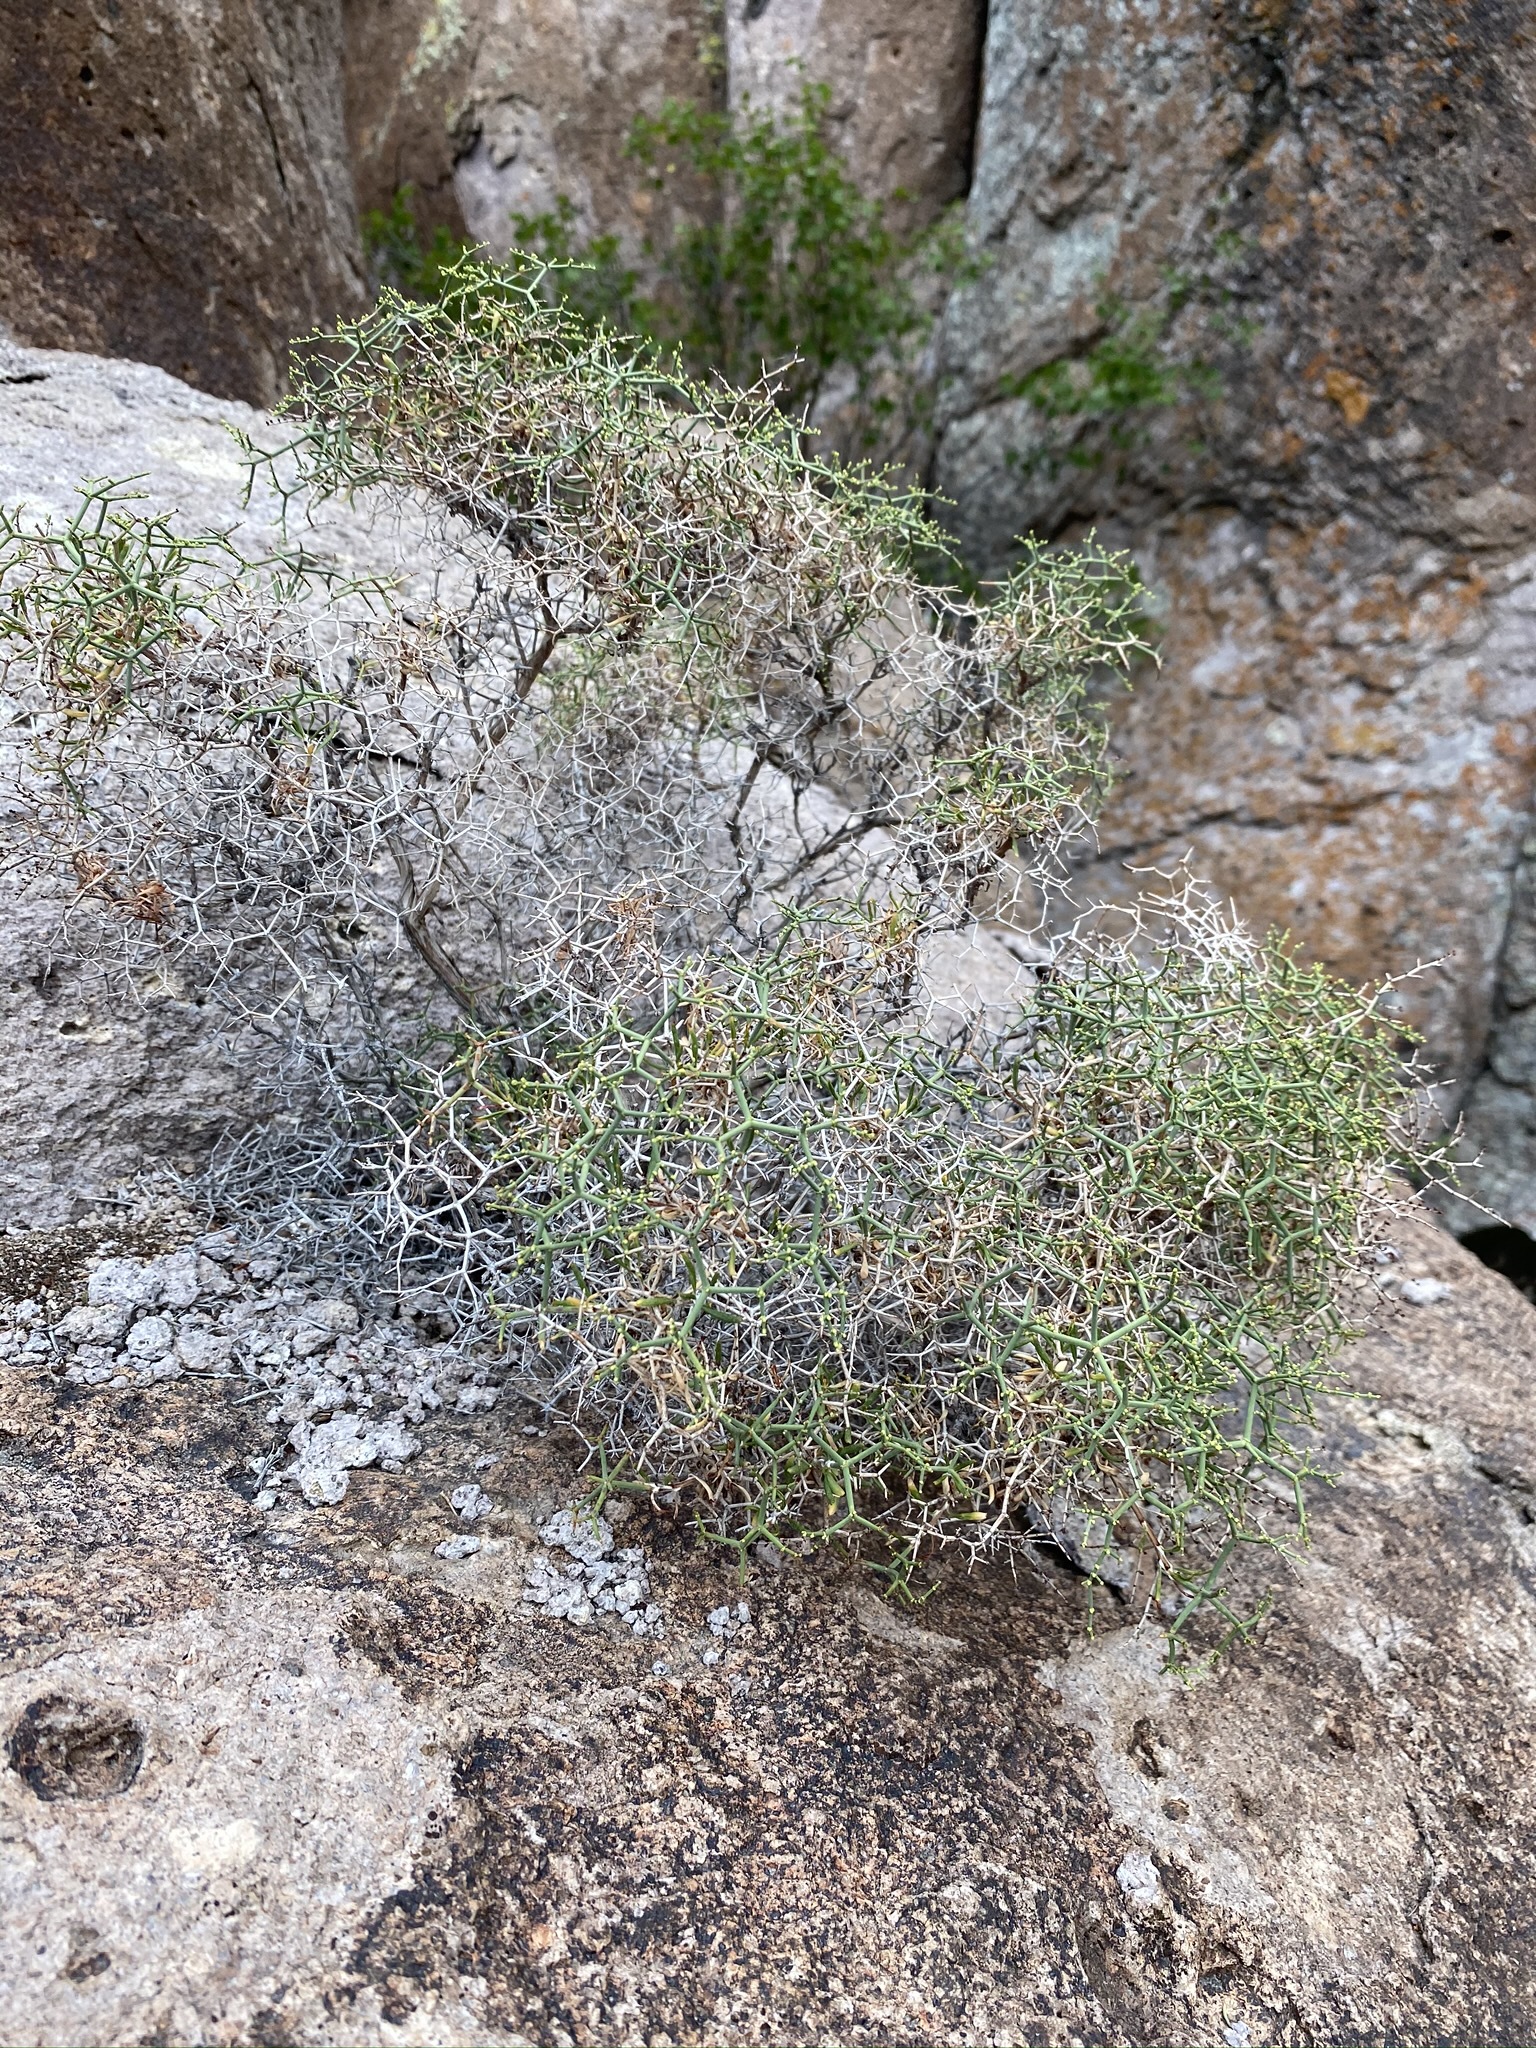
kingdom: Plantae
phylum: Tracheophyta
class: Magnoliopsida
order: Caryophyllales
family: Polygonaceae
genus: Eriogonum
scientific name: Eriogonum heermannii
